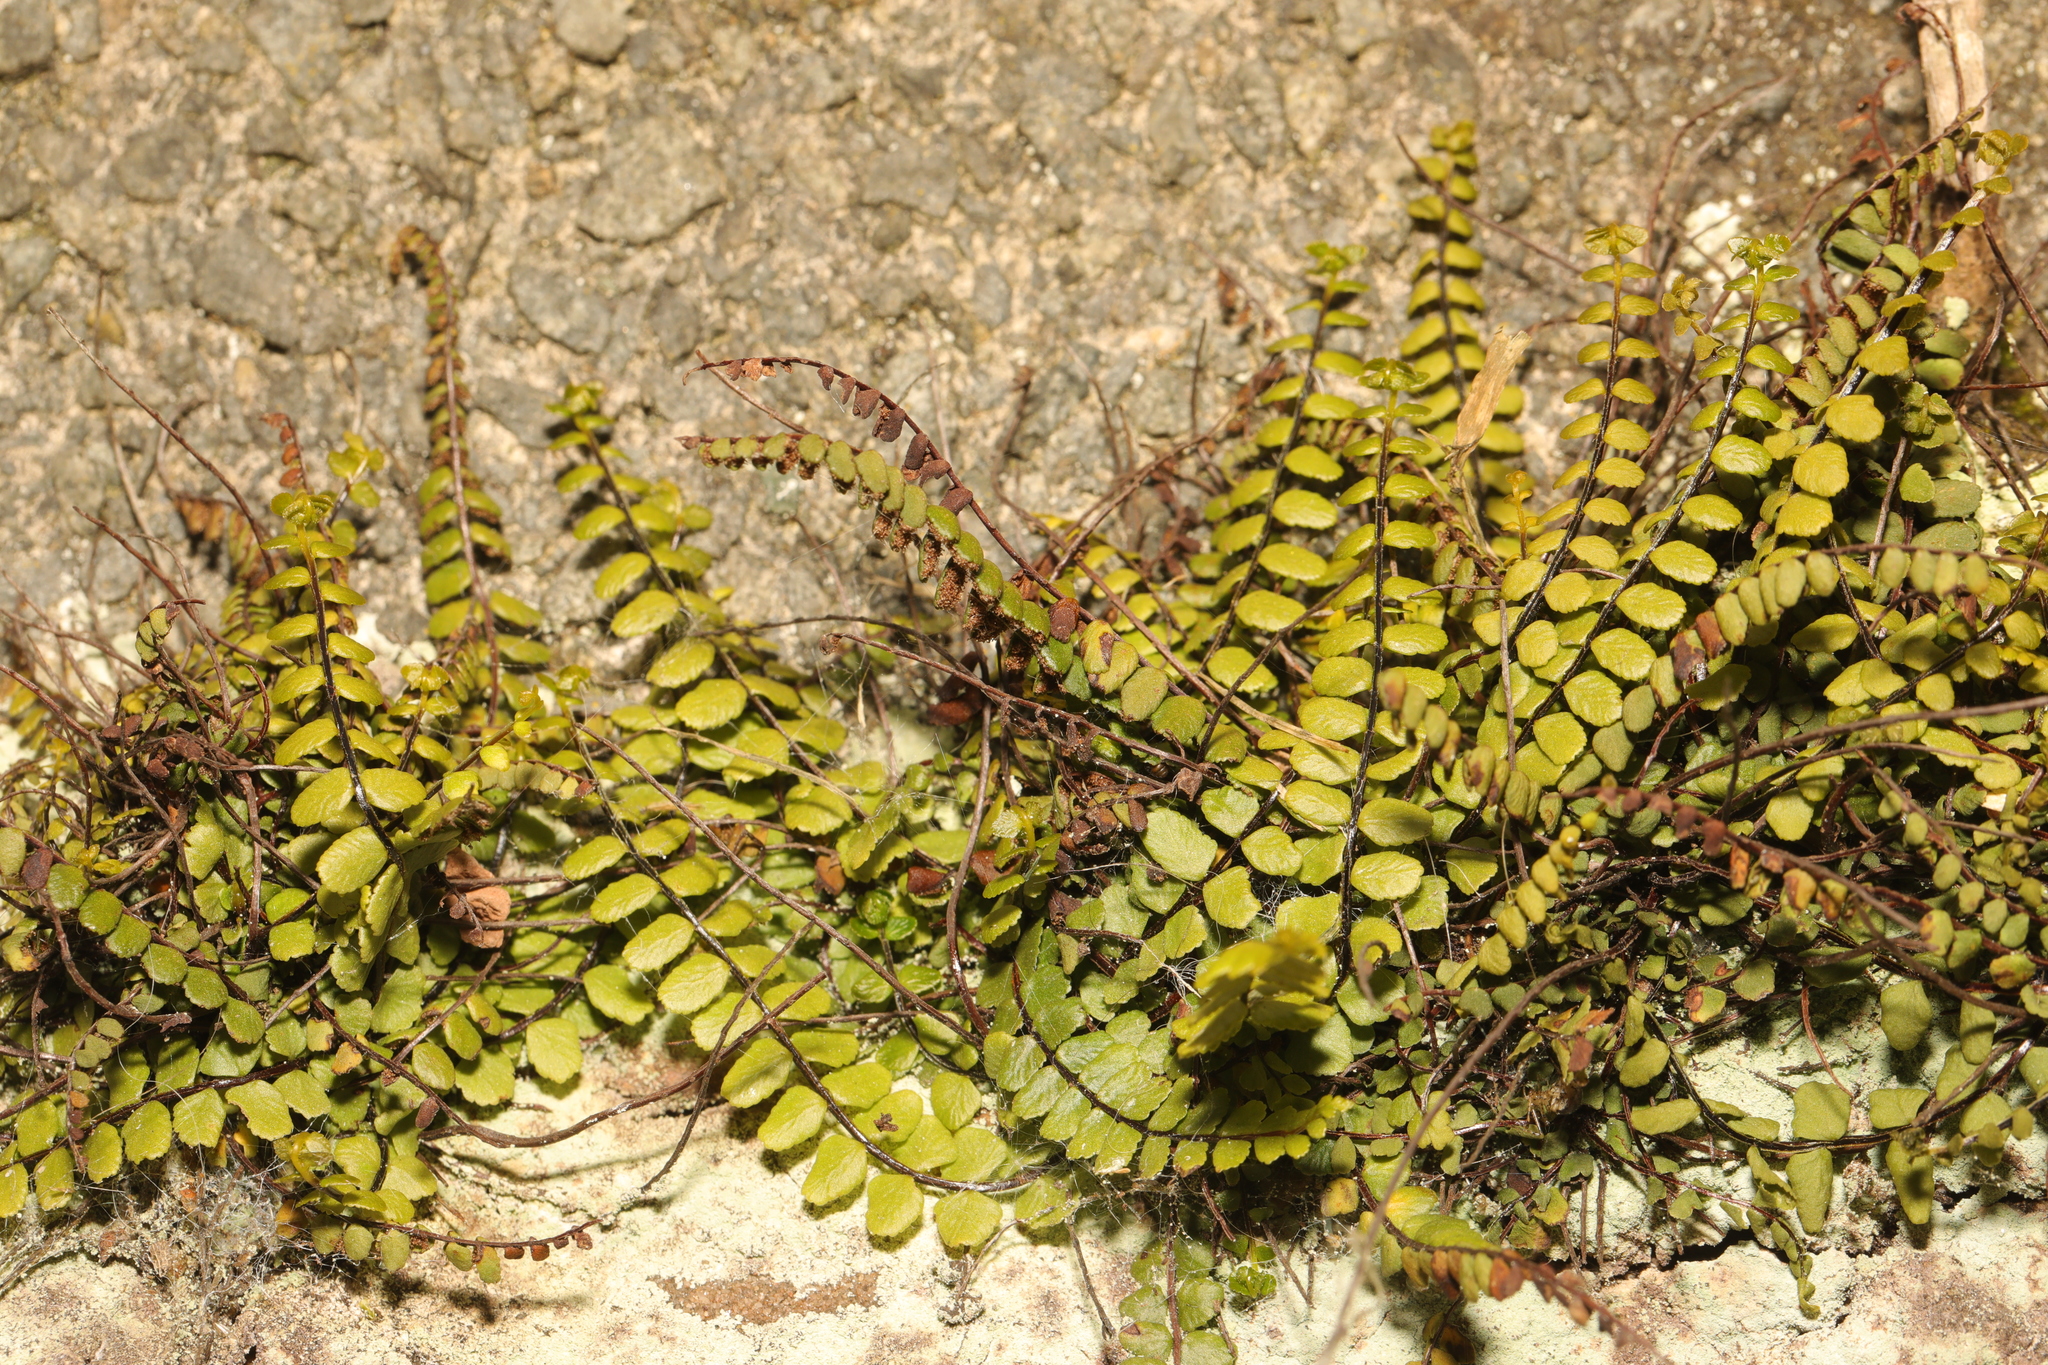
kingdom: Plantae
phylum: Tracheophyta
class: Polypodiopsida
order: Polypodiales
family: Aspleniaceae
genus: Asplenium
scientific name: Asplenium trichomanes
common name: Maidenhair spleenwort
